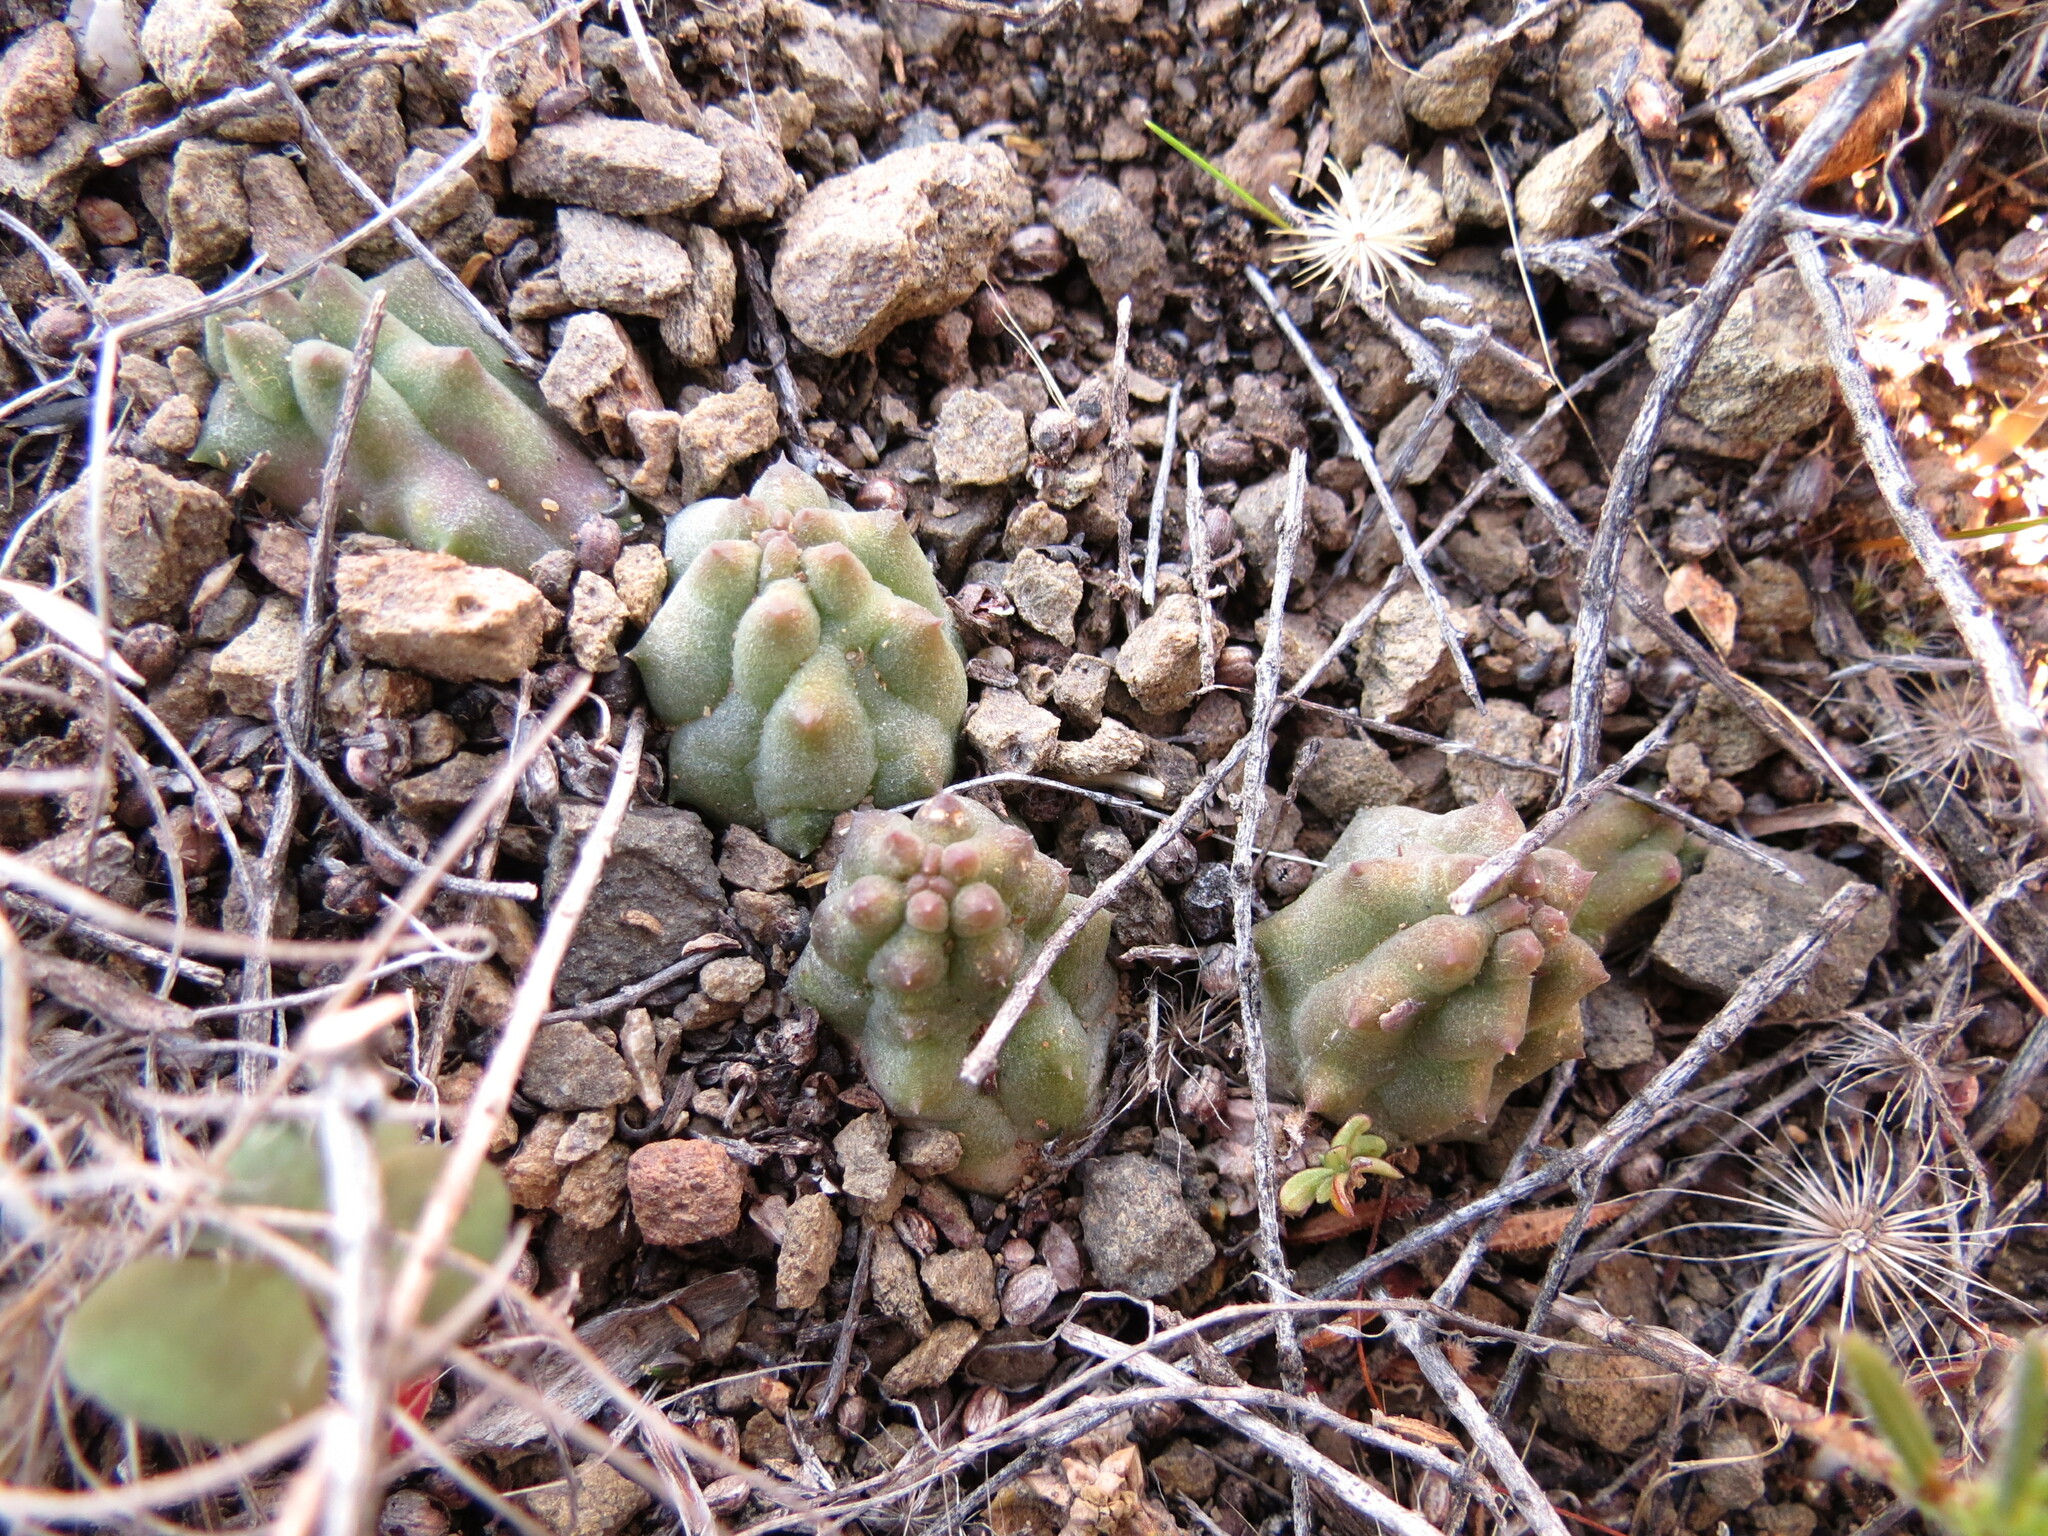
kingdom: Plantae
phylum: Tracheophyta
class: Magnoliopsida
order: Gentianales
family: Apocynaceae
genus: Ceropegia
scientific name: Ceropegia articulata
